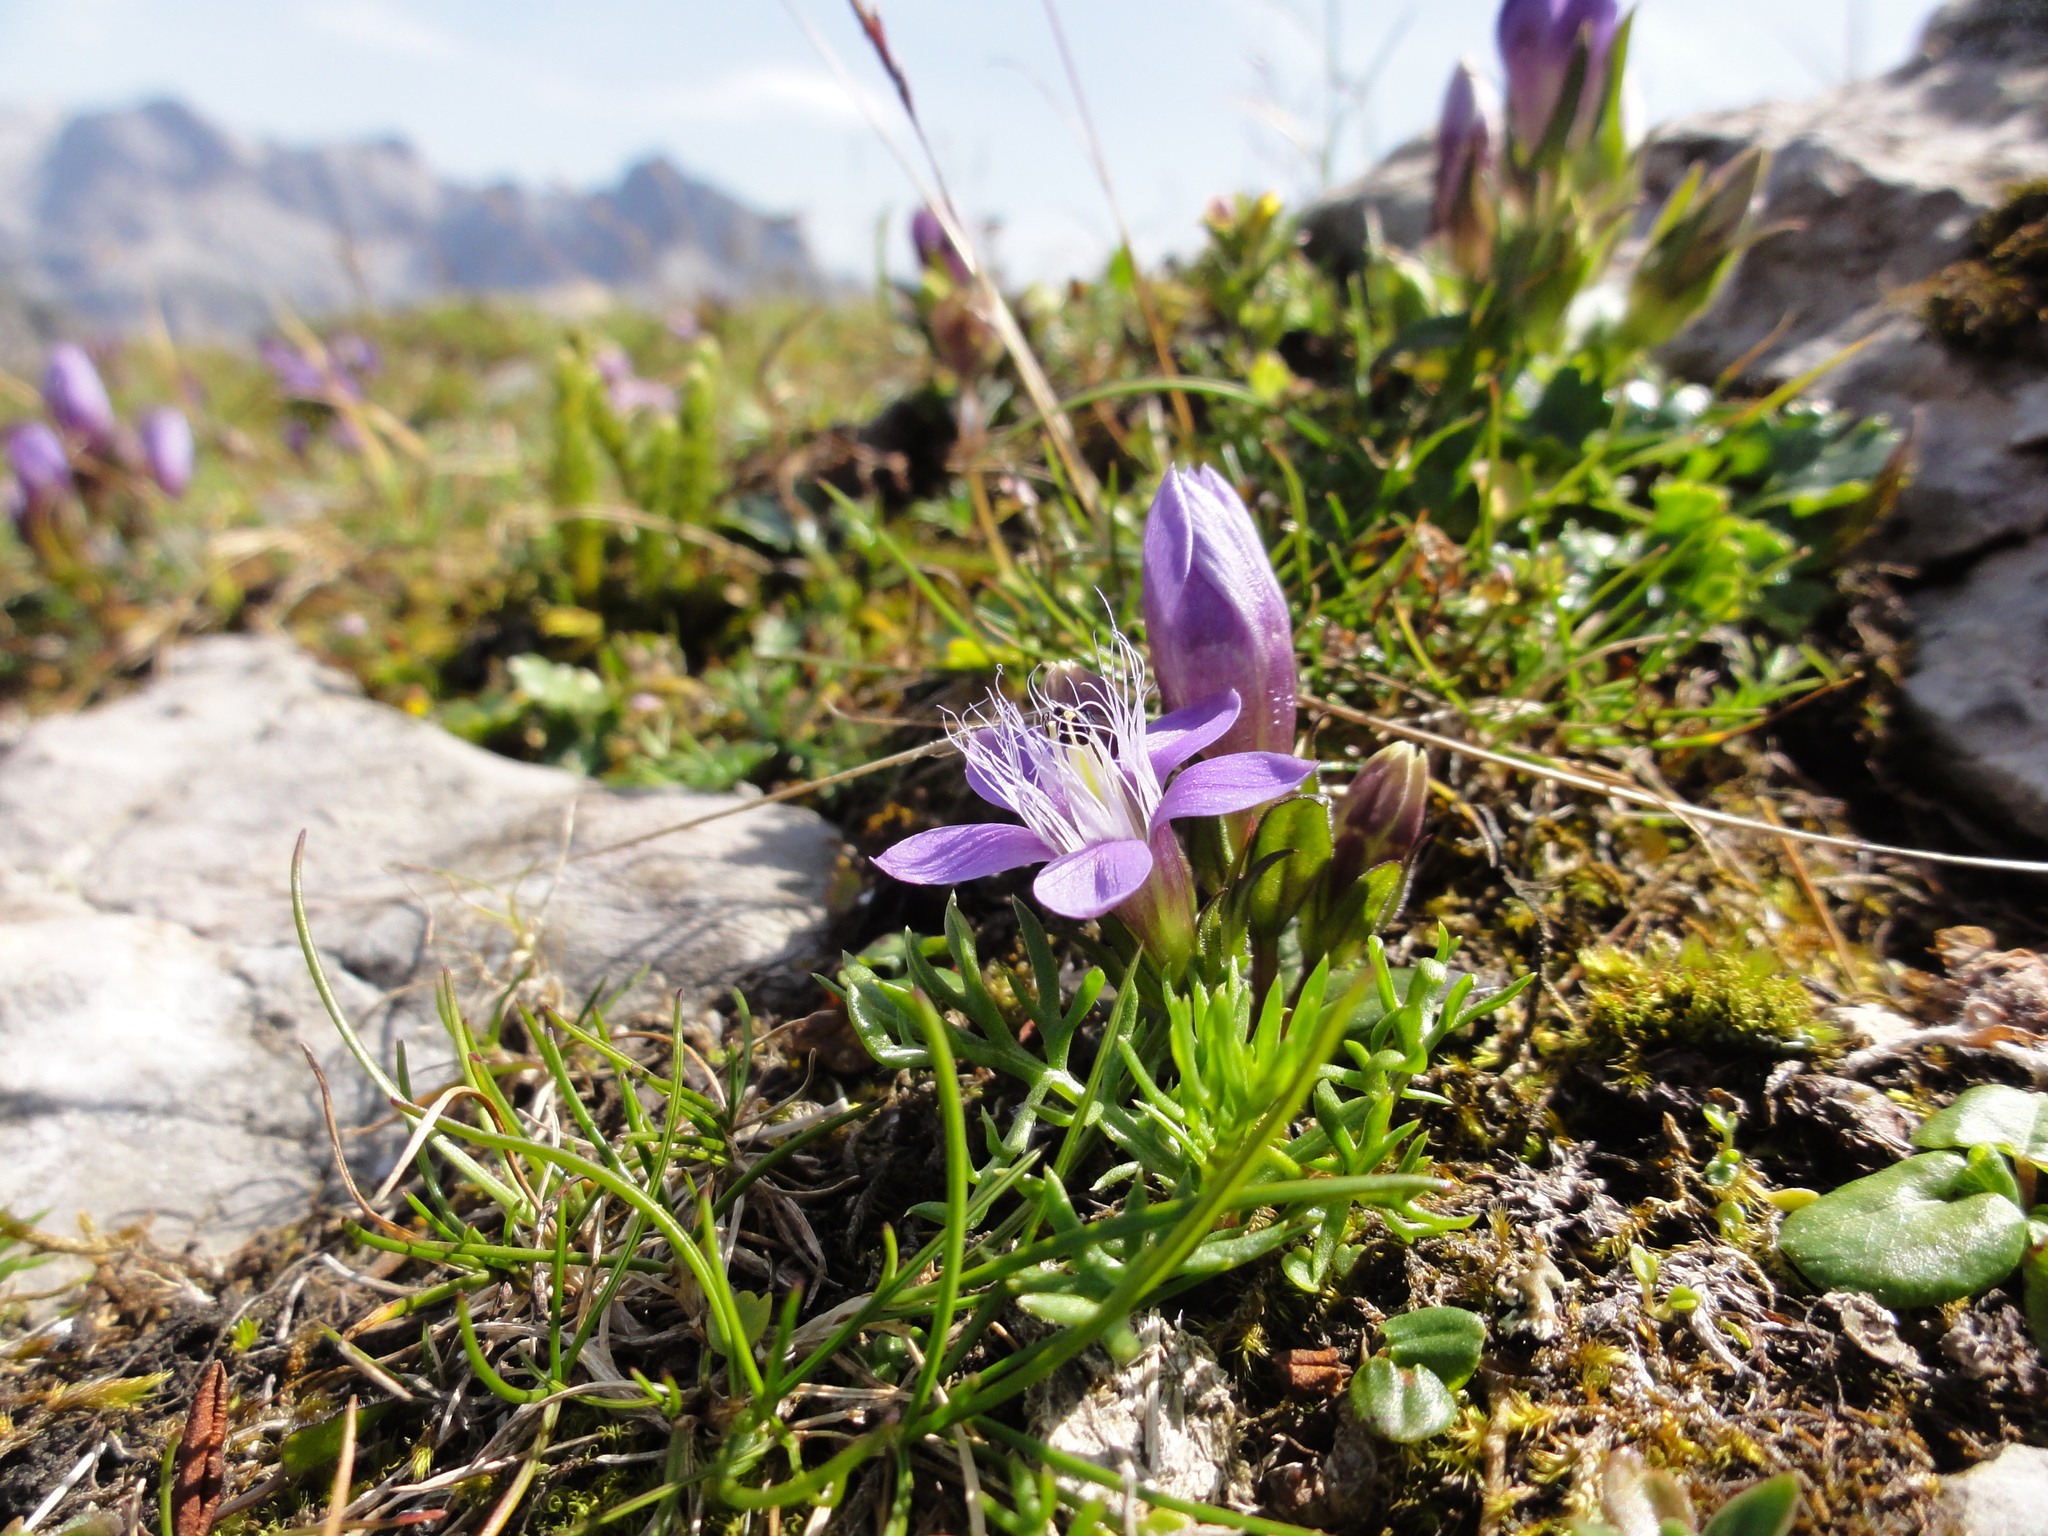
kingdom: Plantae
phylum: Tracheophyta
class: Magnoliopsida
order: Gentianales
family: Gentianaceae
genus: Gentianella
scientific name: Gentianella obtusifolia
